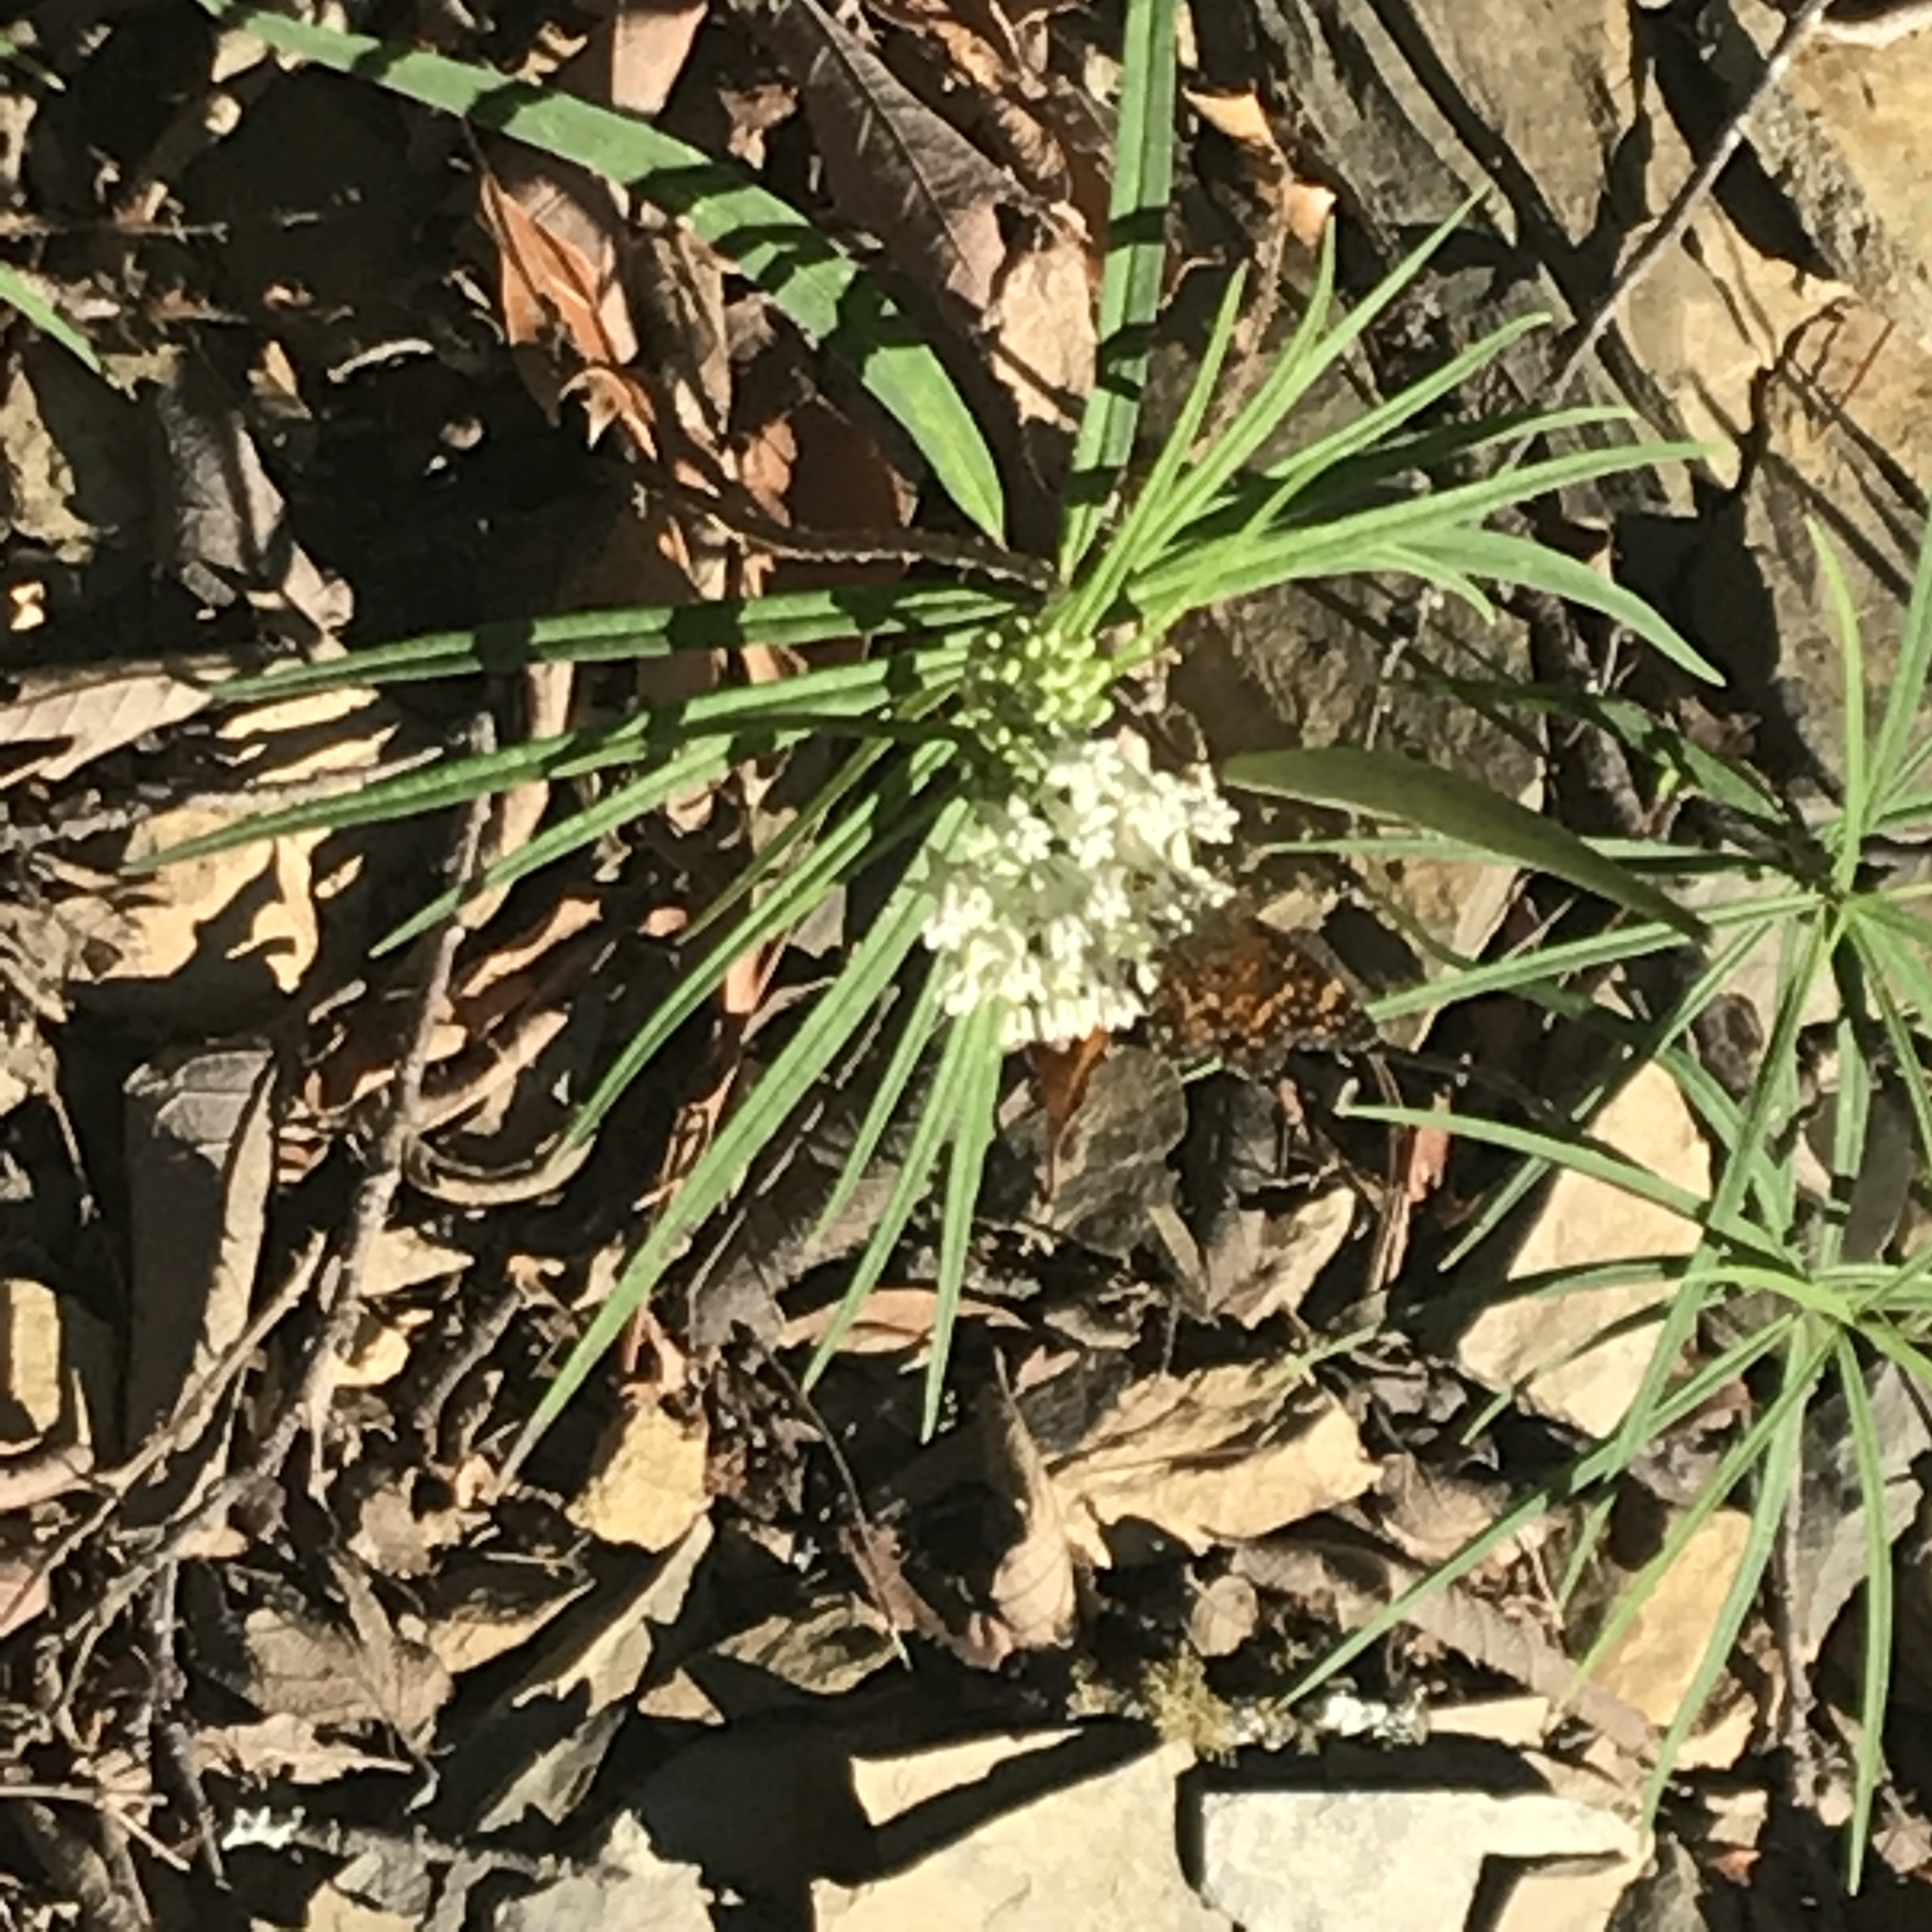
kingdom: Plantae
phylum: Tracheophyta
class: Magnoliopsida
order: Gentianales
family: Apocynaceae
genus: Asclepias
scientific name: Asclepias angustifolia
